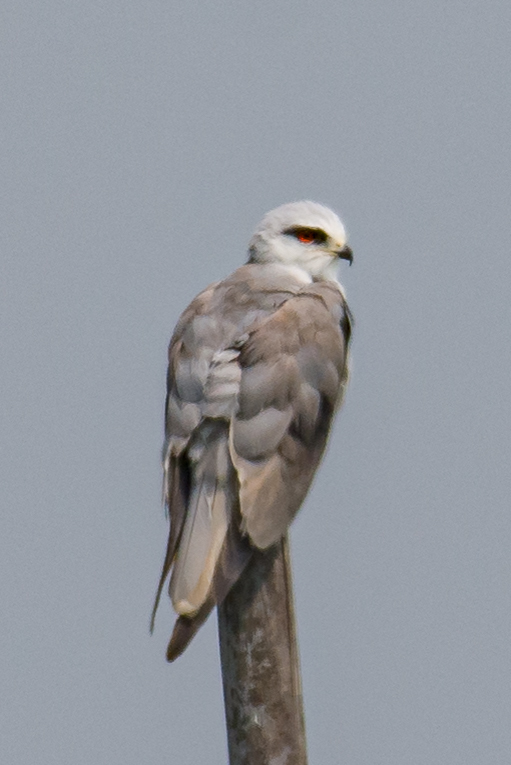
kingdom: Animalia
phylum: Chordata
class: Aves
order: Accipitriformes
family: Accipitridae
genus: Elanus
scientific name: Elanus caeruleus
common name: Black-winged kite
